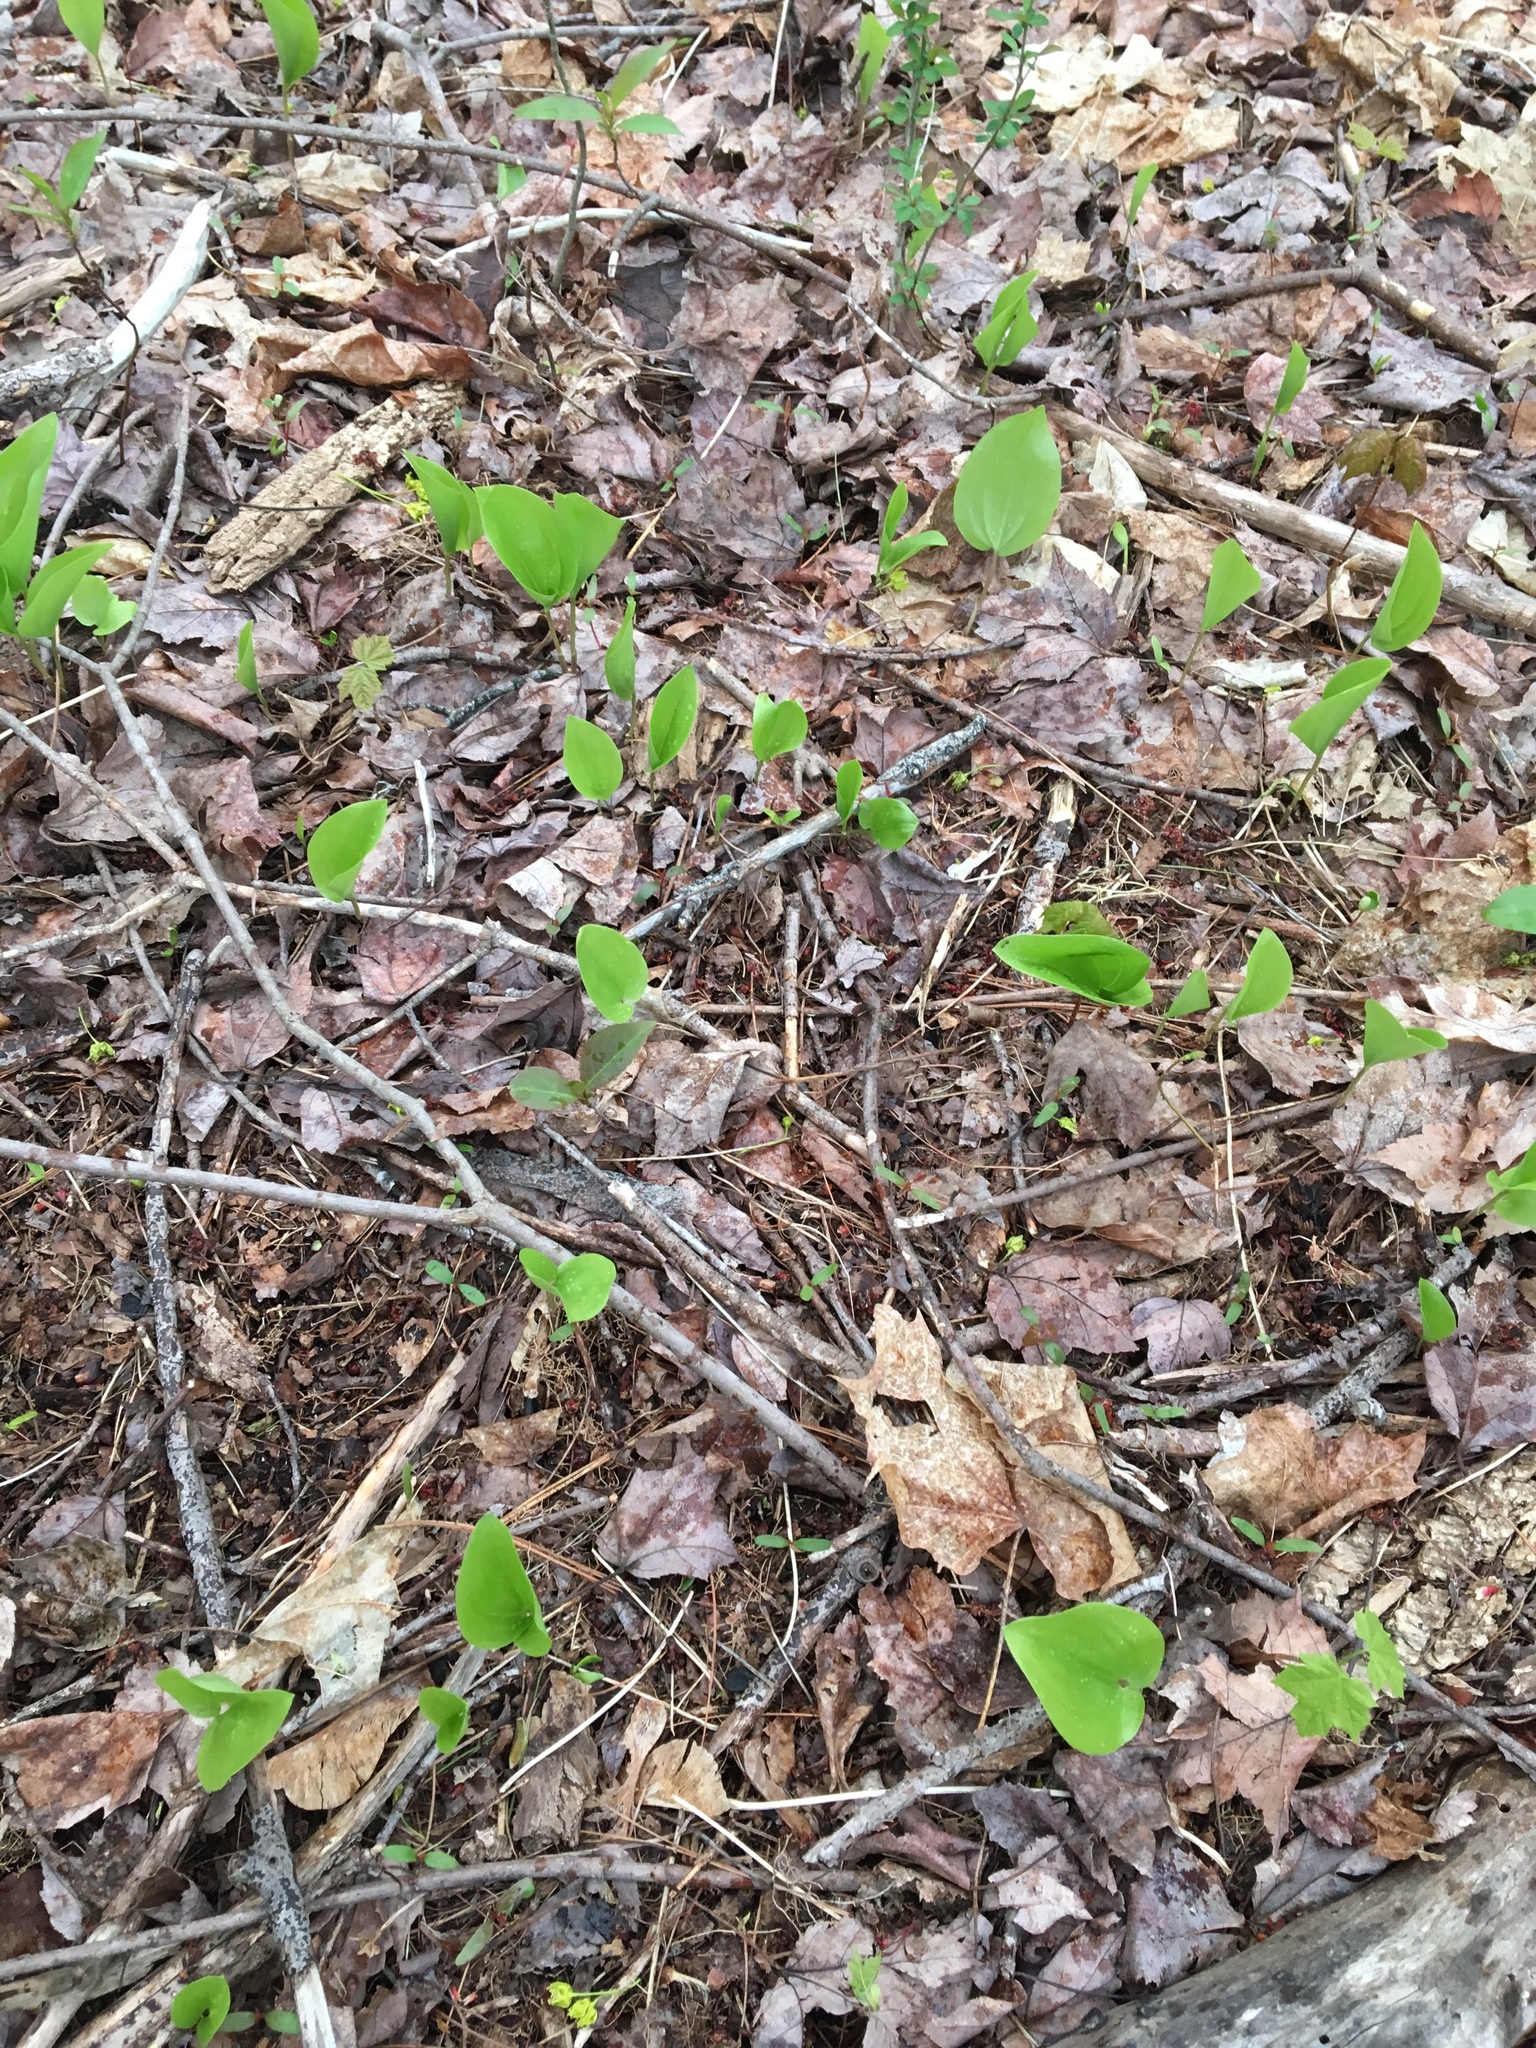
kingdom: Plantae
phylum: Tracheophyta
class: Liliopsida
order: Asparagales
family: Asparagaceae
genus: Maianthemum
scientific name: Maianthemum canadense
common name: False lily-of-the-valley
